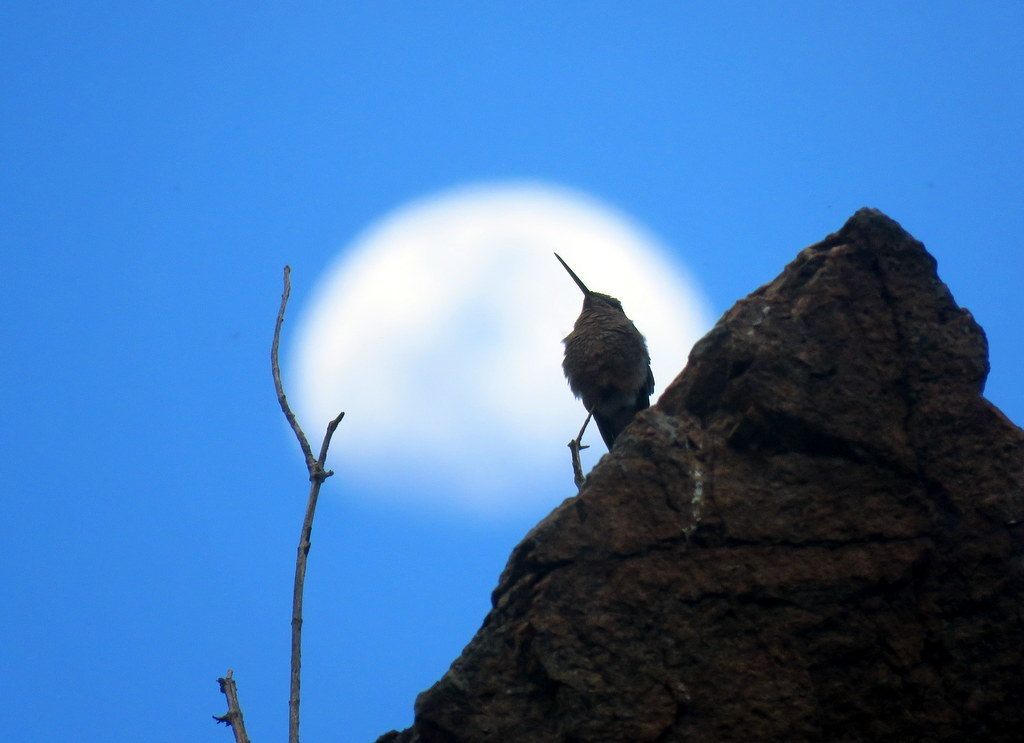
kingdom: Animalia
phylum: Chordata
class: Aves
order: Apodiformes
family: Trochilidae
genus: Patagona
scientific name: Patagona gigas
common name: Giant hummingbird
